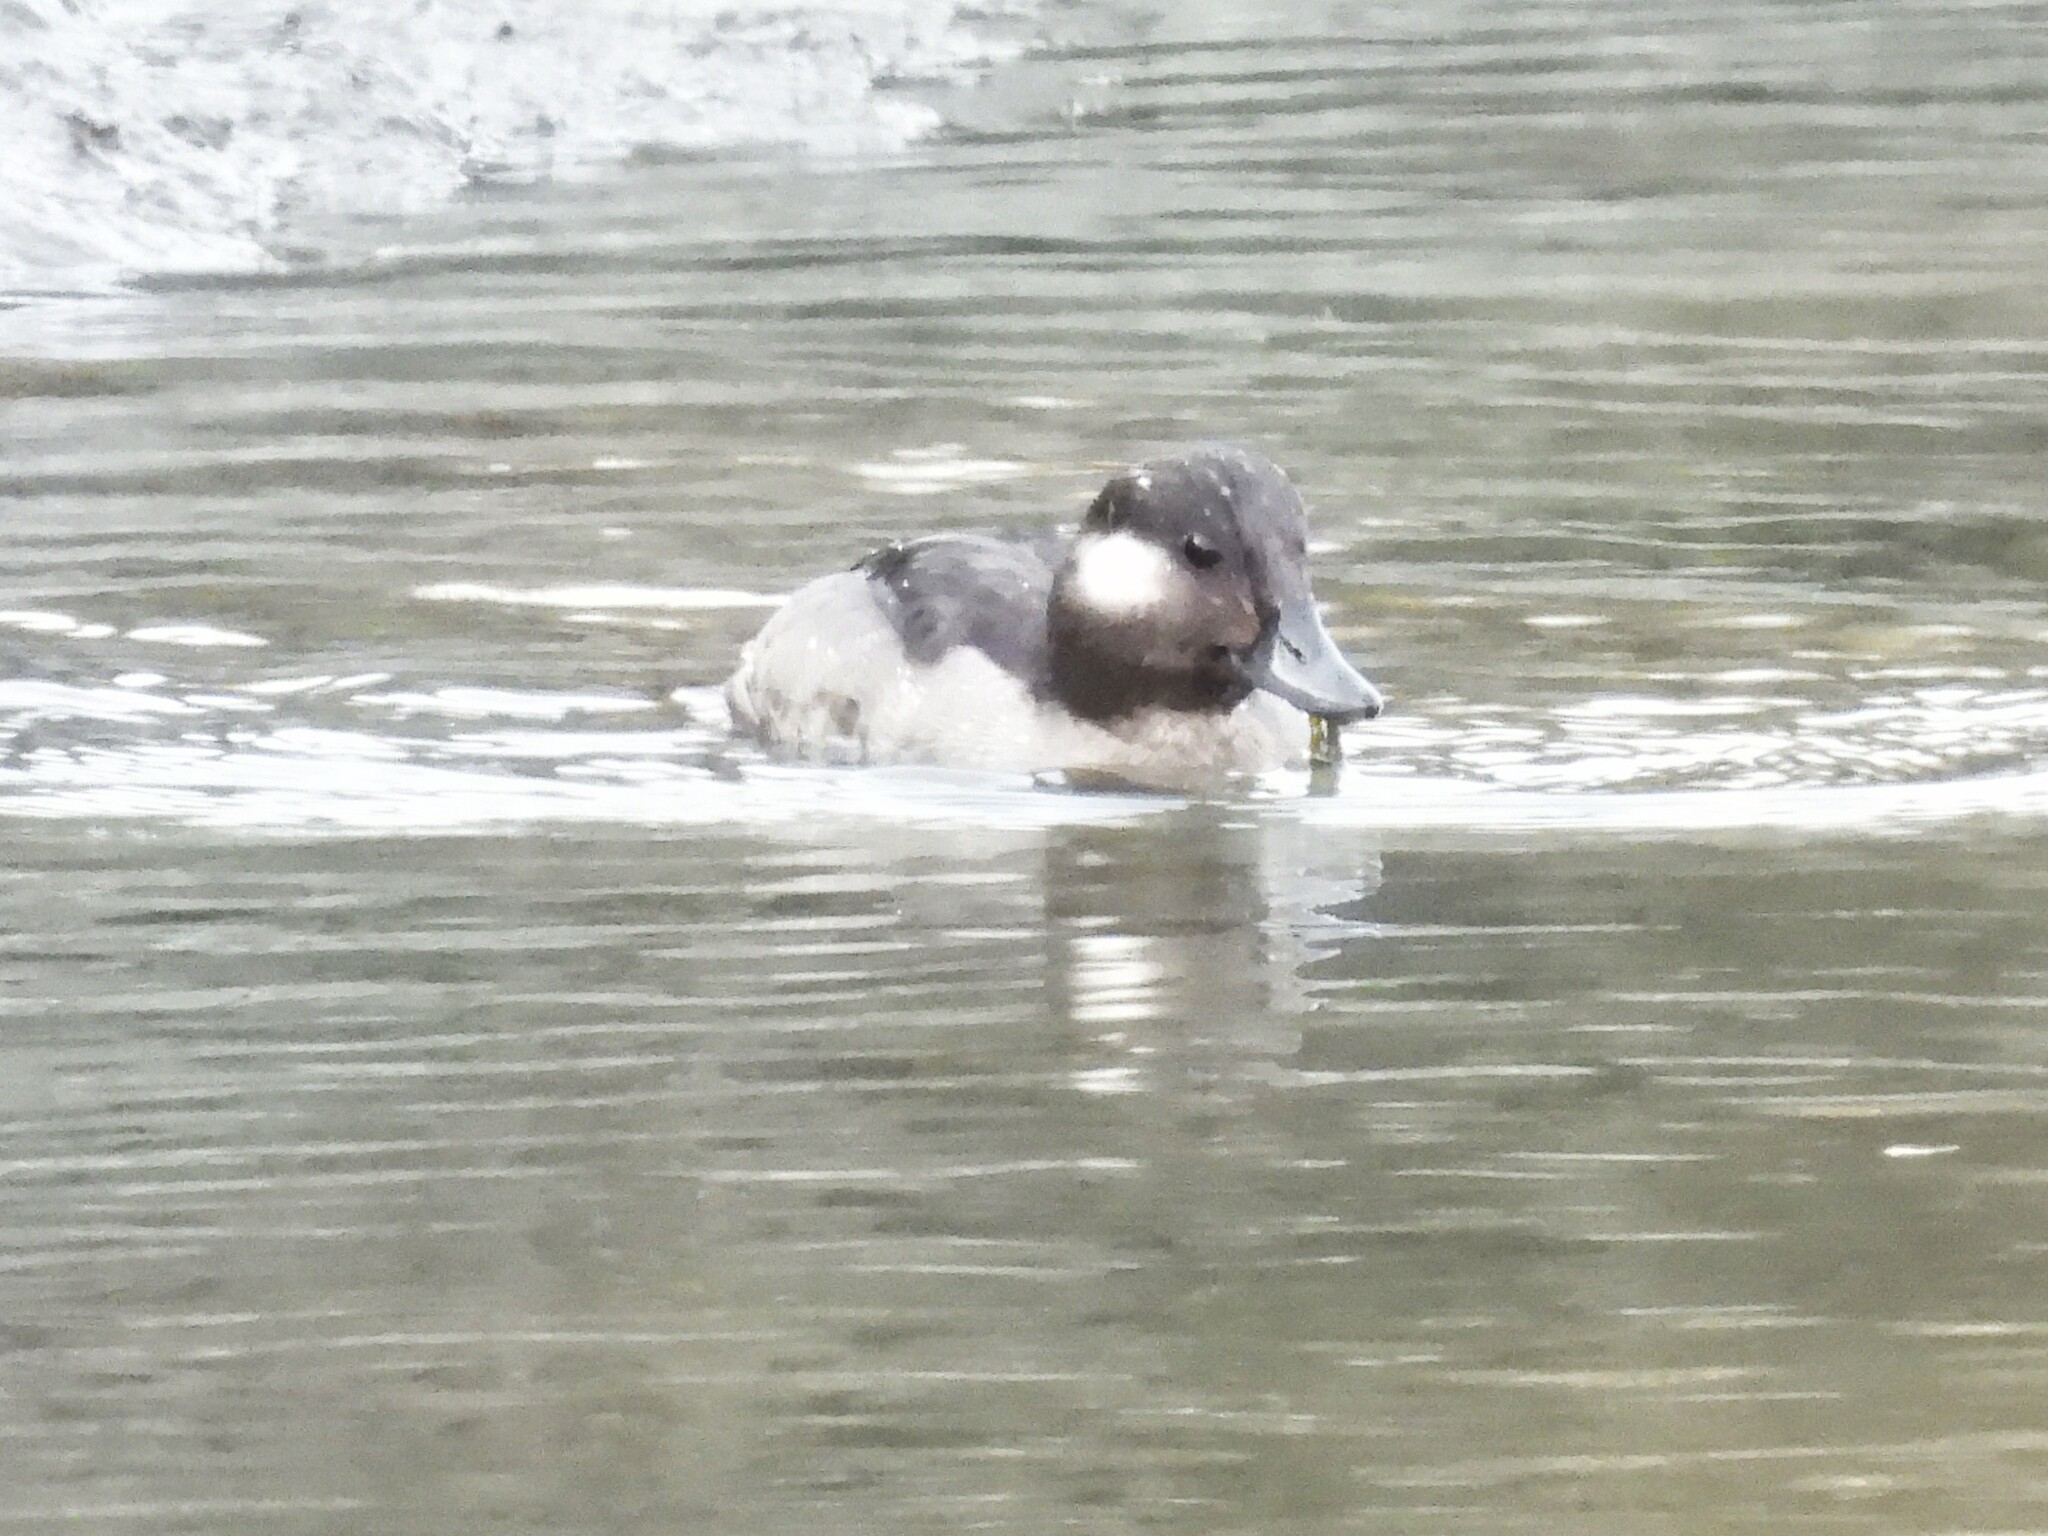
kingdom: Animalia
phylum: Chordata
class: Aves
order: Anseriformes
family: Anatidae
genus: Bucephala
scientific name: Bucephala albeola
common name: Bufflehead
